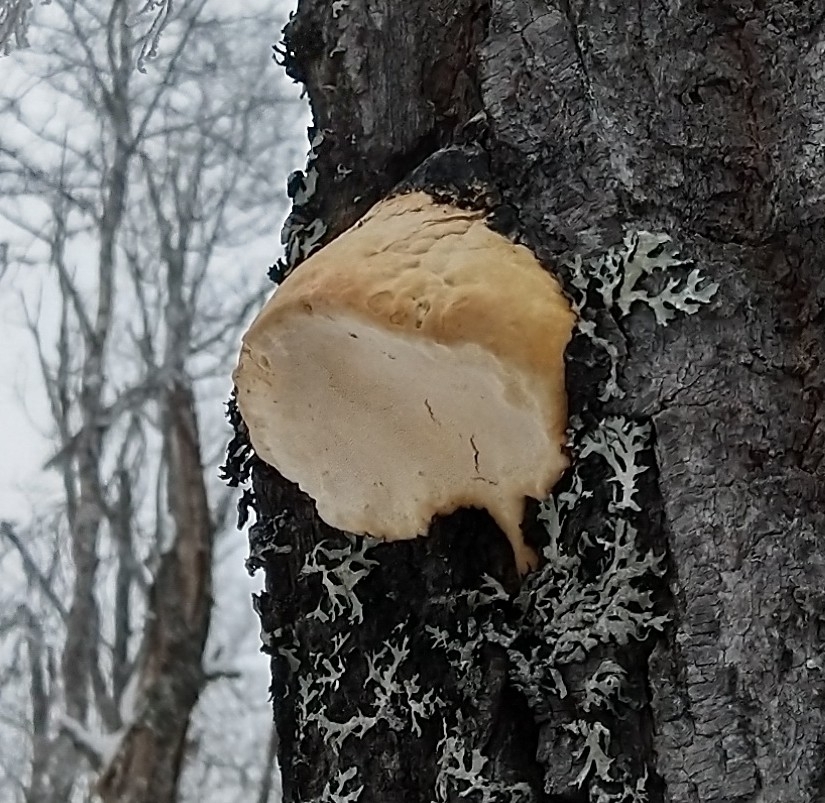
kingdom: Fungi
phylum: Basidiomycota
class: Agaricomycetes
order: Polyporales
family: Polyporaceae
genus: Haploporus
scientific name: Haploporus odorus
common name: Aniseed polypore
